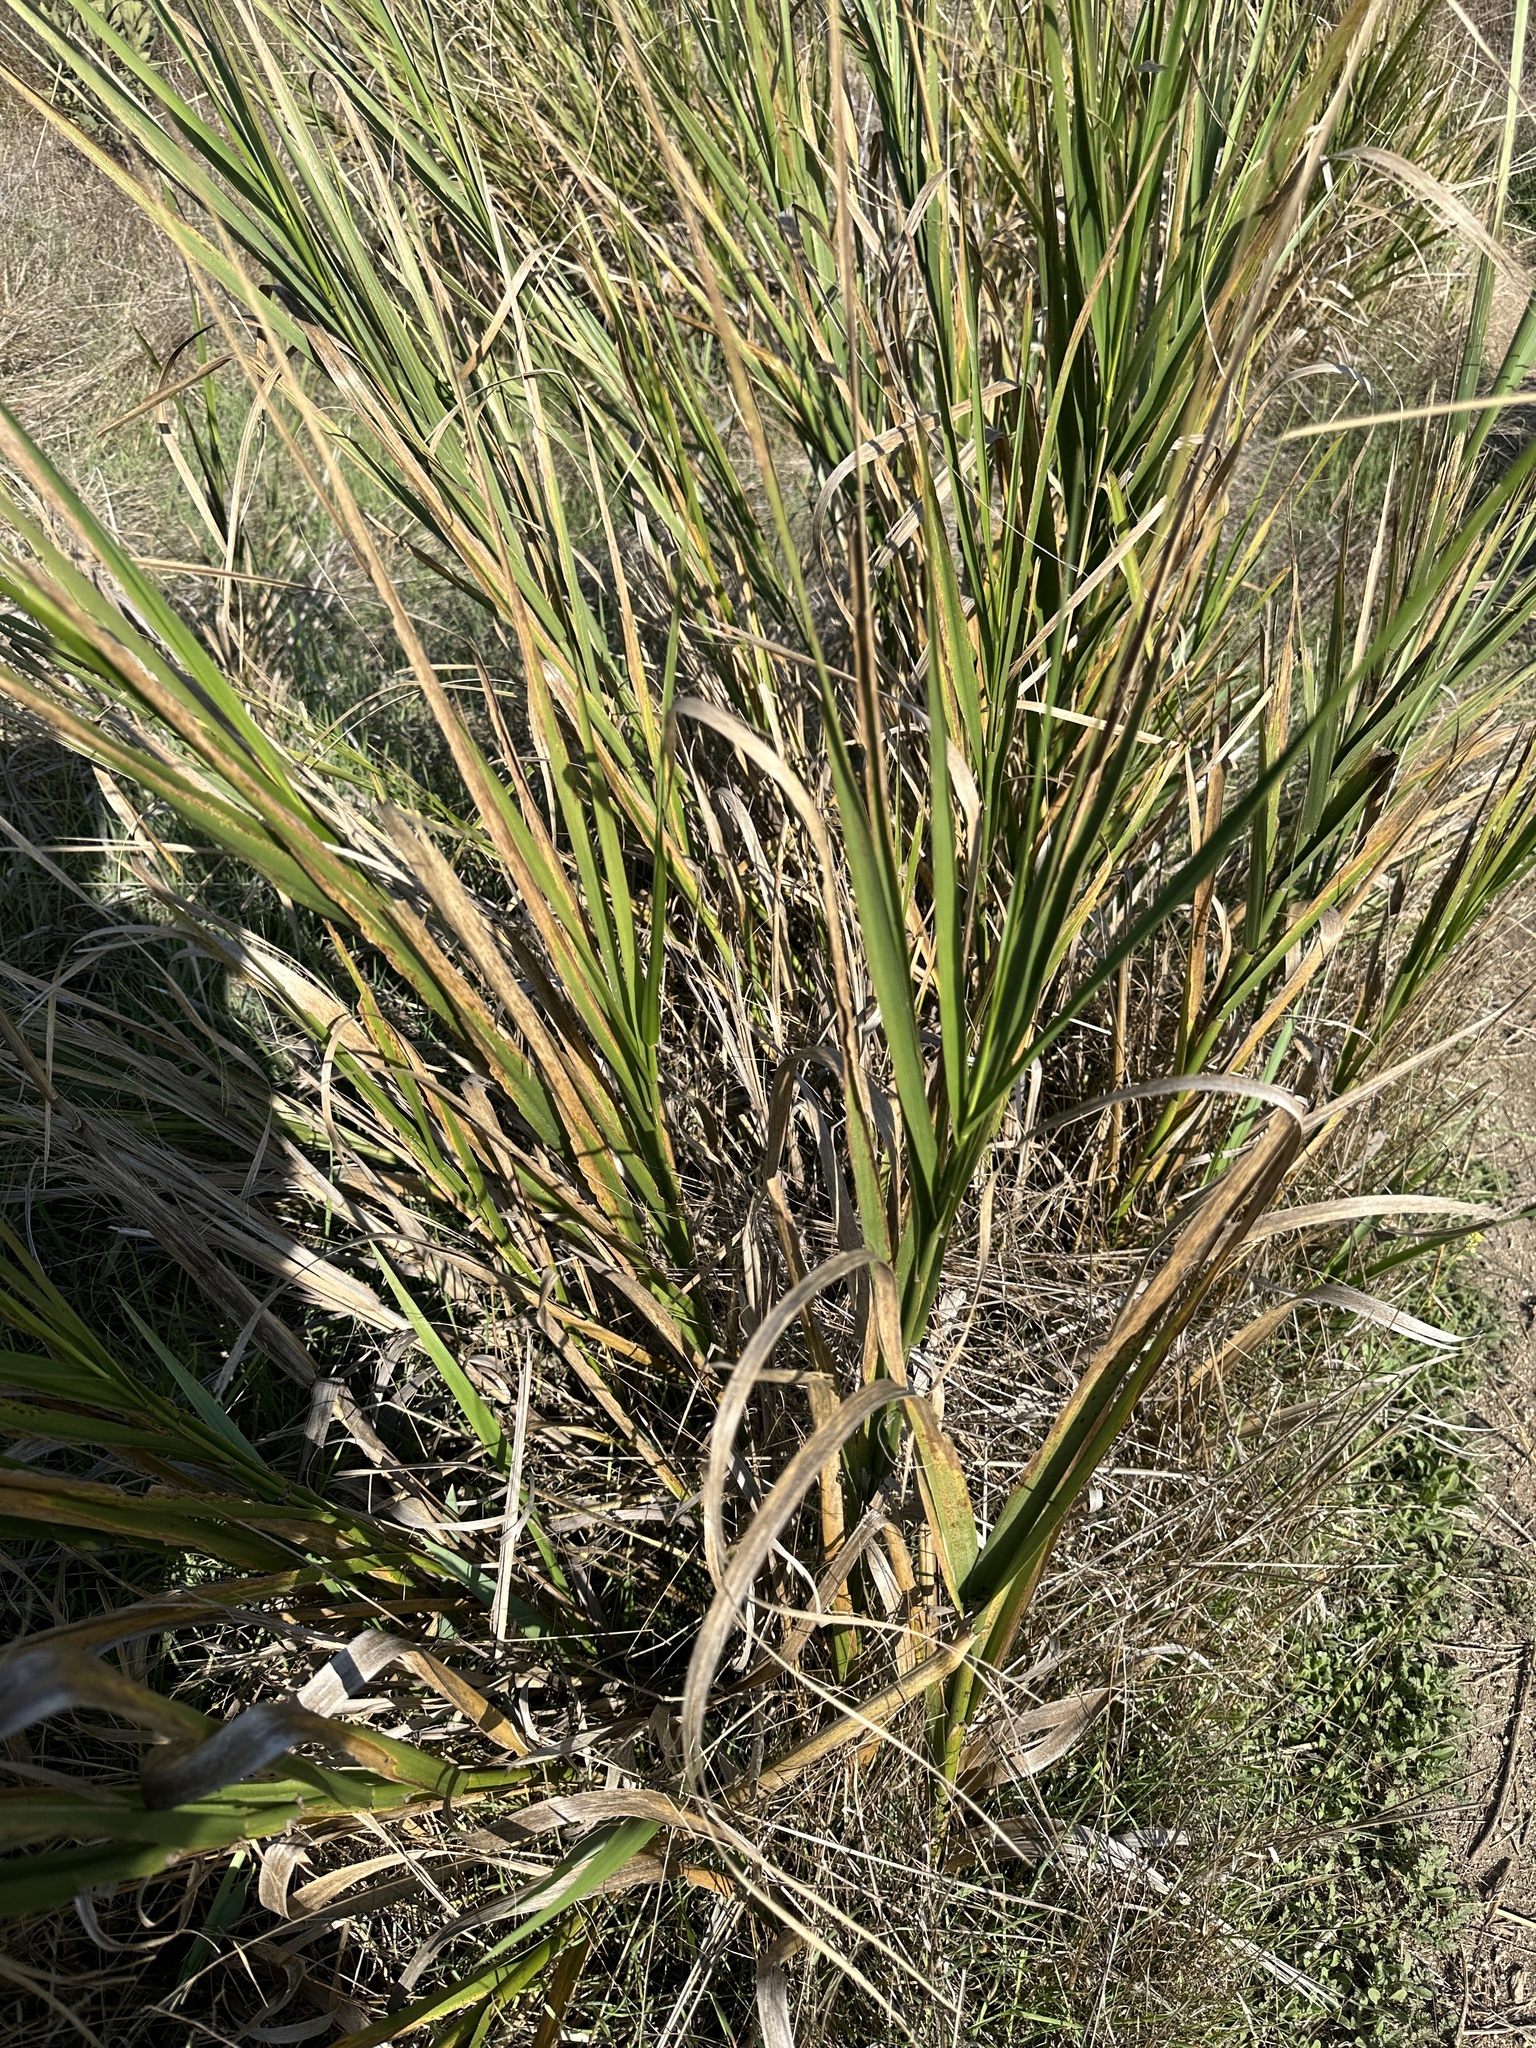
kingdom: Plantae
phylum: Tracheophyta
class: Liliopsida
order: Poales
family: Poaceae
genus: Leymus
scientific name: Leymus condensatus
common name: Giant wild rye
